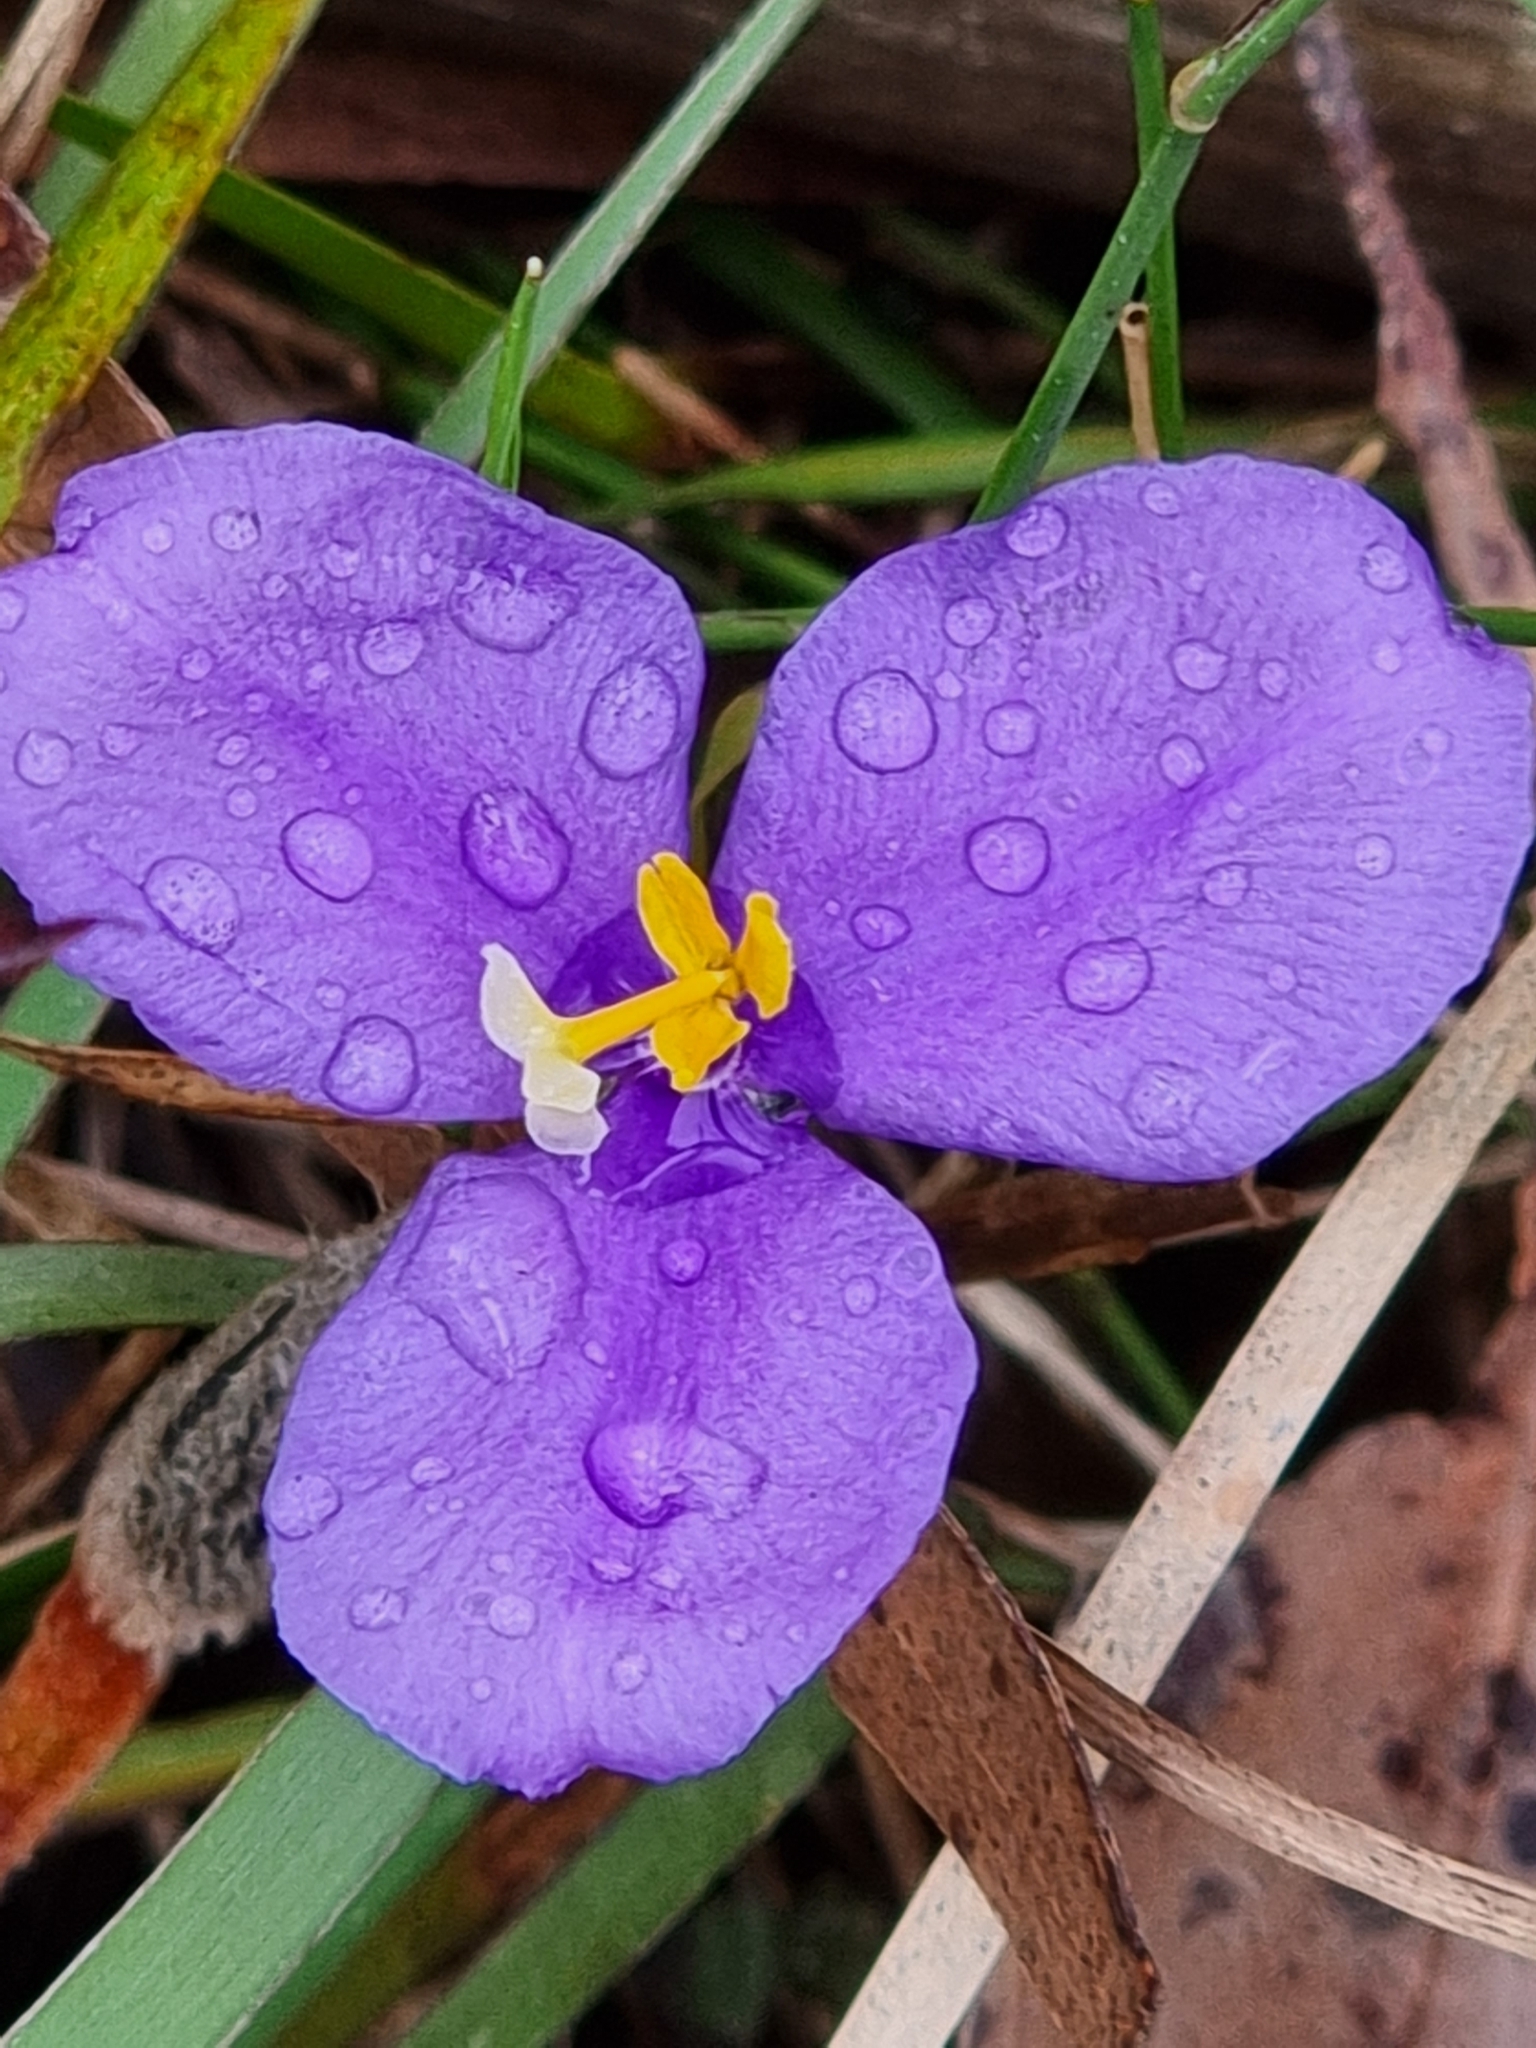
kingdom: Plantae
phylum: Tracheophyta
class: Liliopsida
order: Asparagales
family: Iridaceae
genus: Patersonia
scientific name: Patersonia sericea
